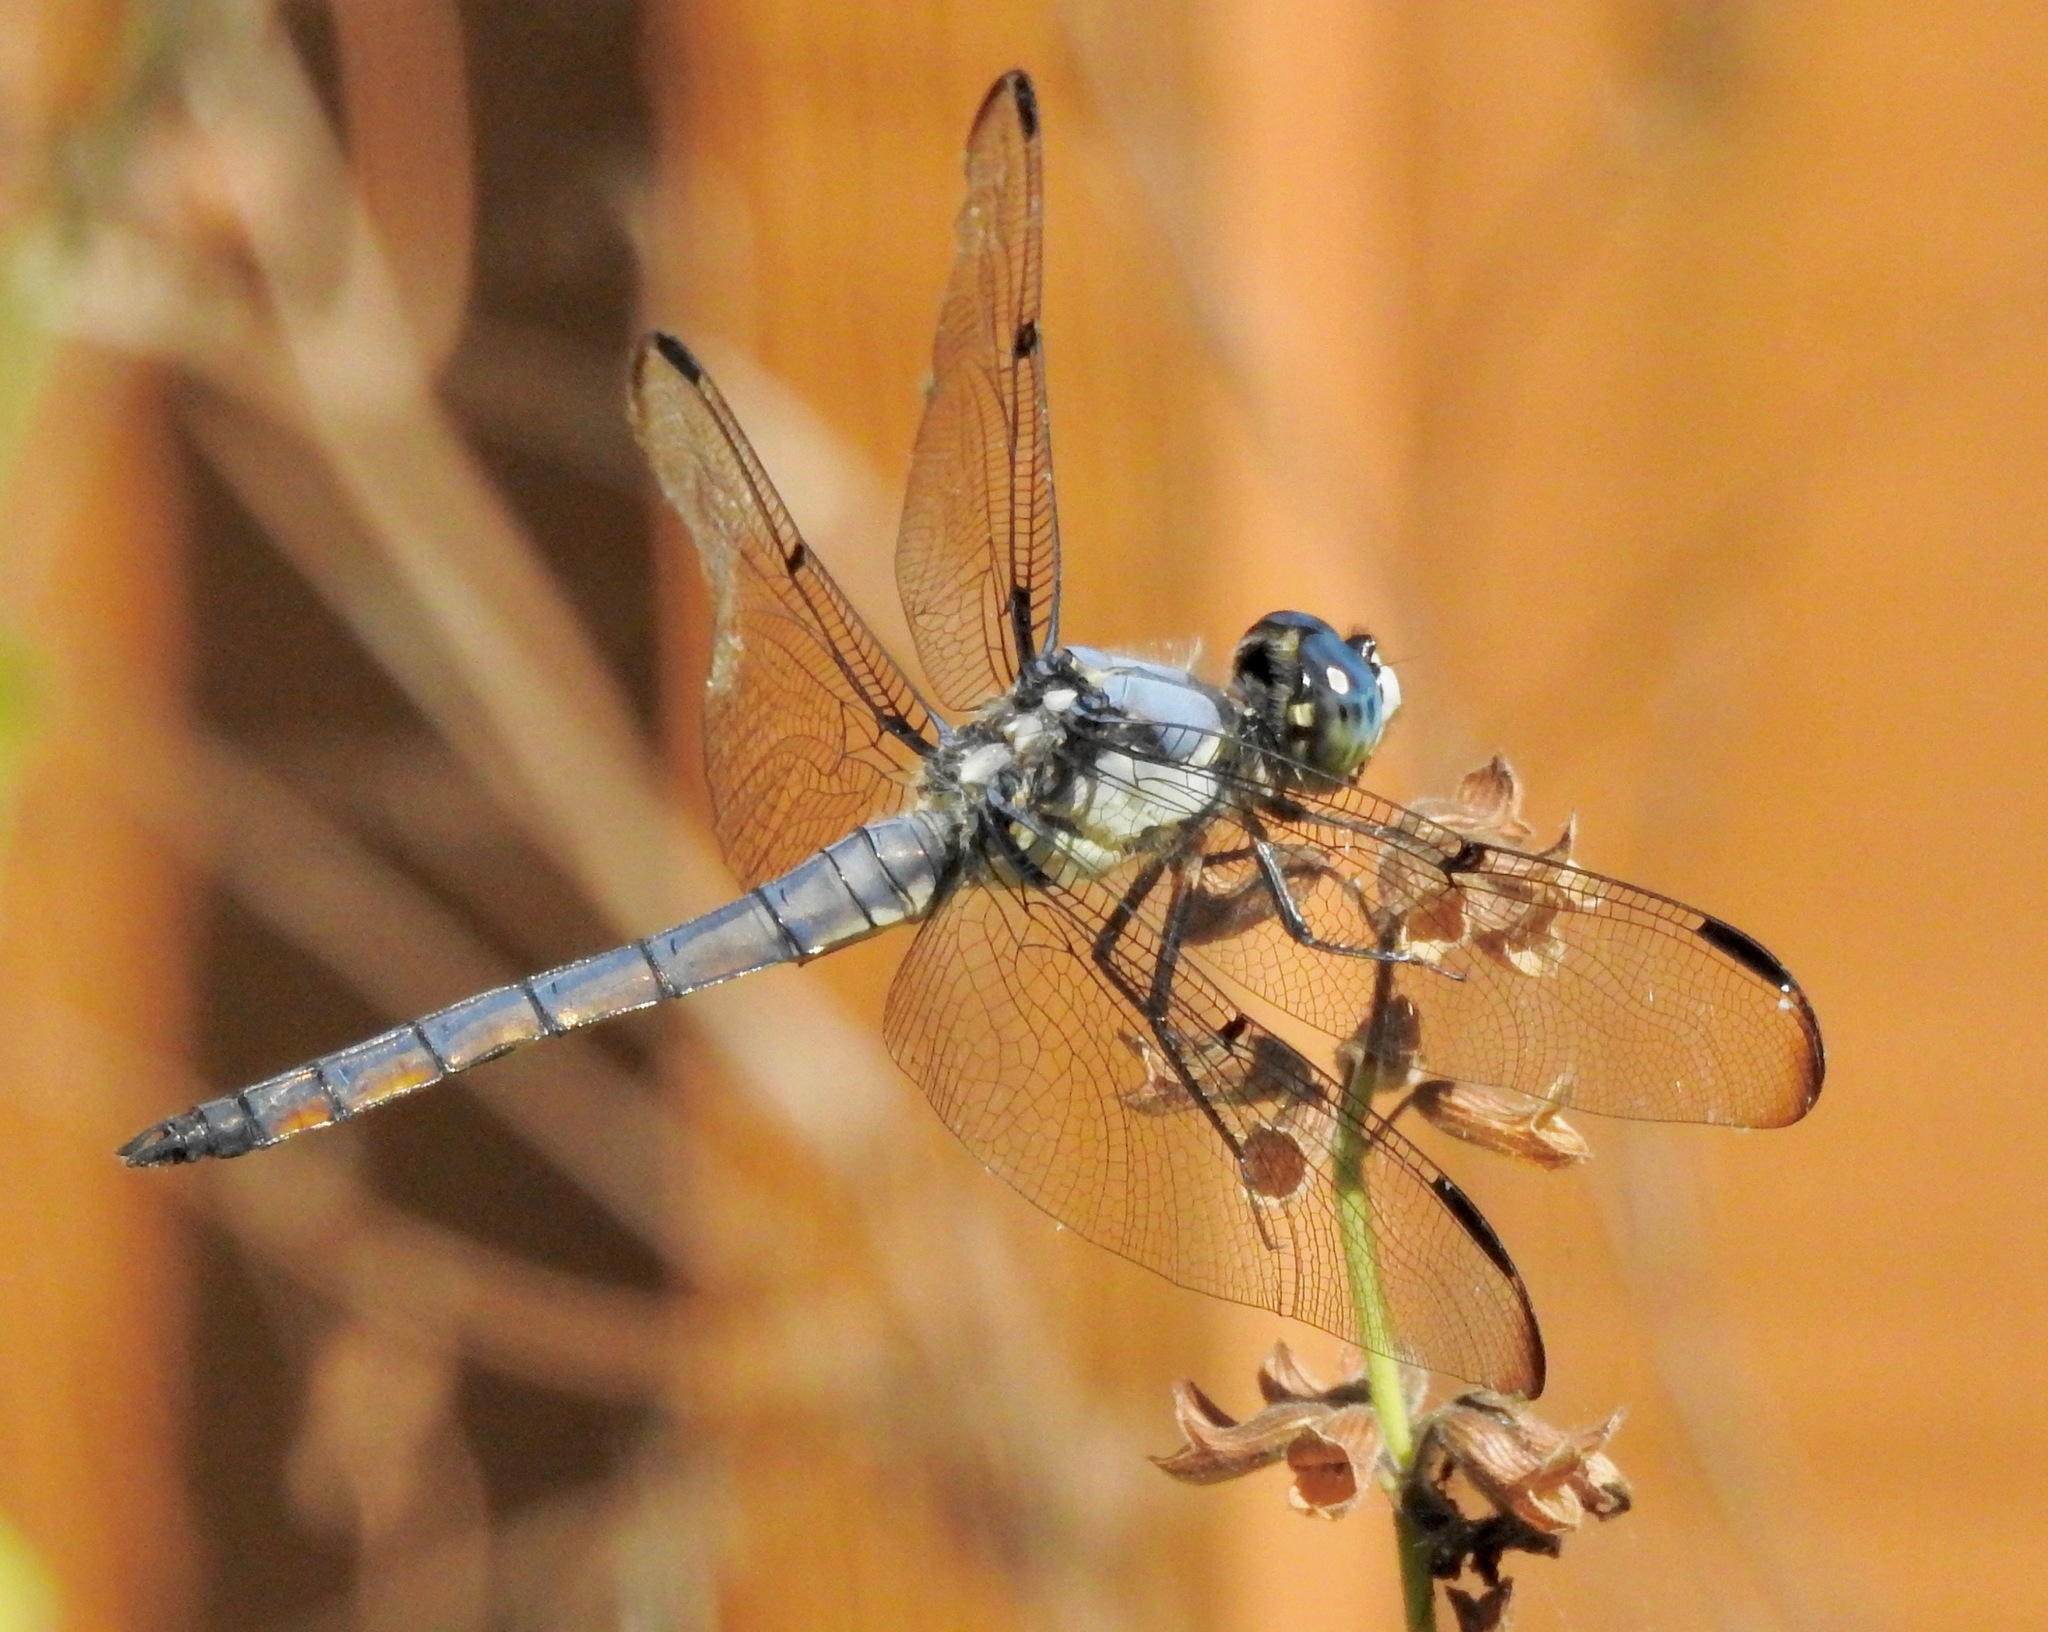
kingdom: Animalia
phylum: Arthropoda
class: Insecta
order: Odonata
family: Libellulidae
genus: Libellula
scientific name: Libellula vibrans
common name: Great blue skimmer
